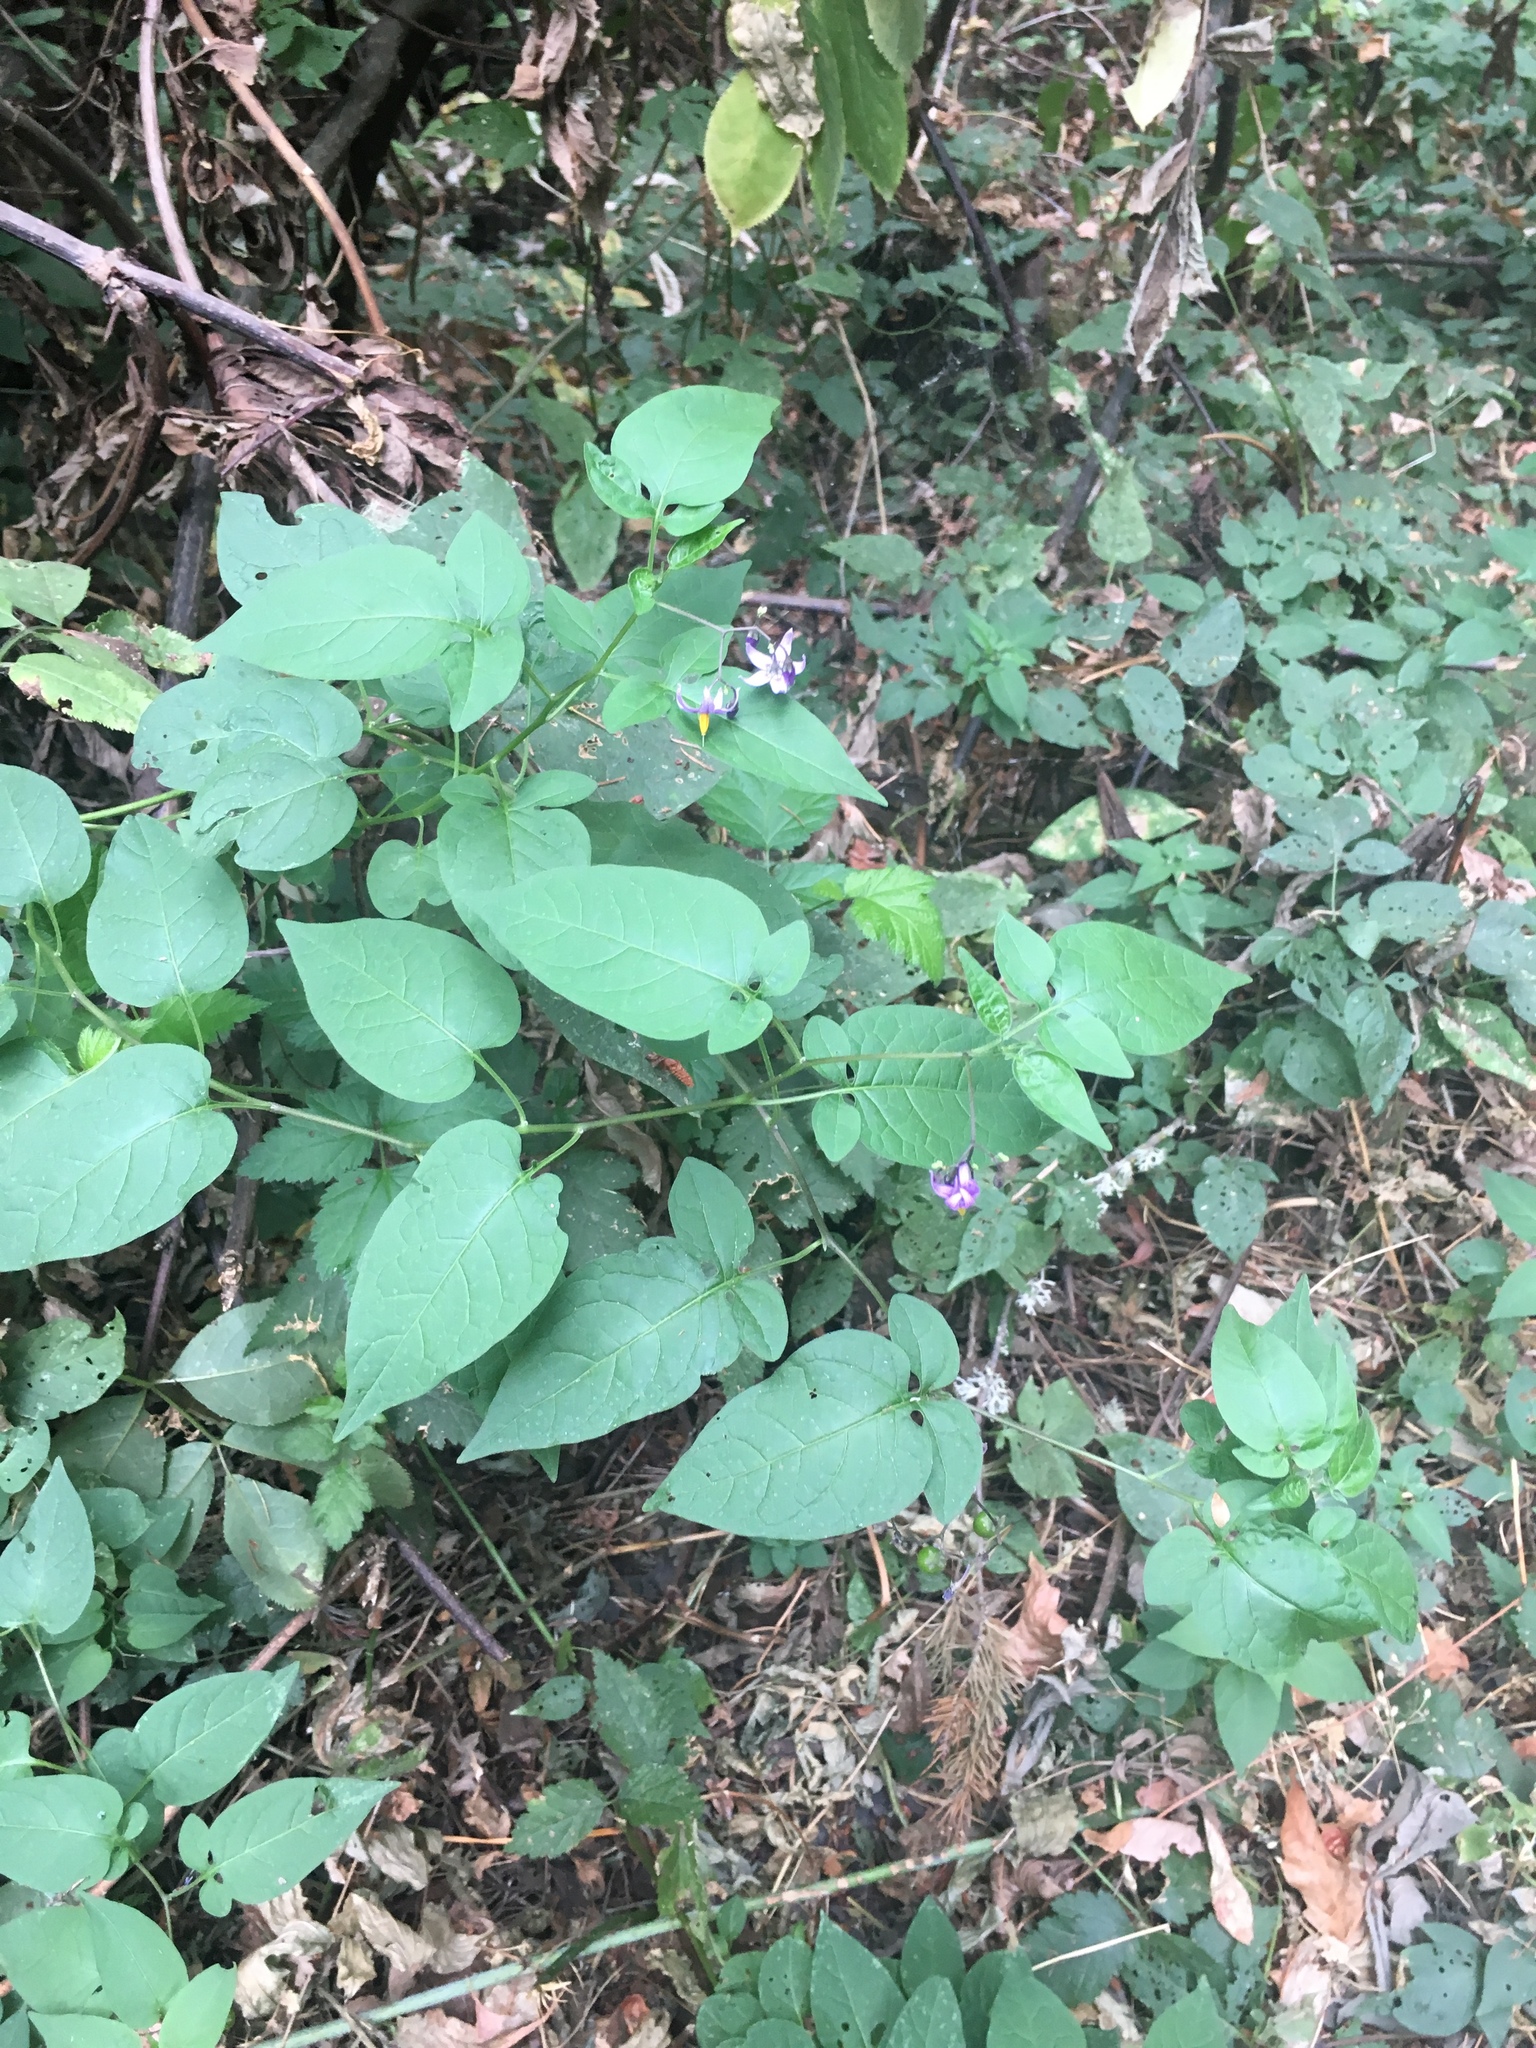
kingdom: Plantae
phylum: Tracheophyta
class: Magnoliopsida
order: Solanales
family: Solanaceae
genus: Solanum
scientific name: Solanum dulcamara
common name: Climbing nightshade
